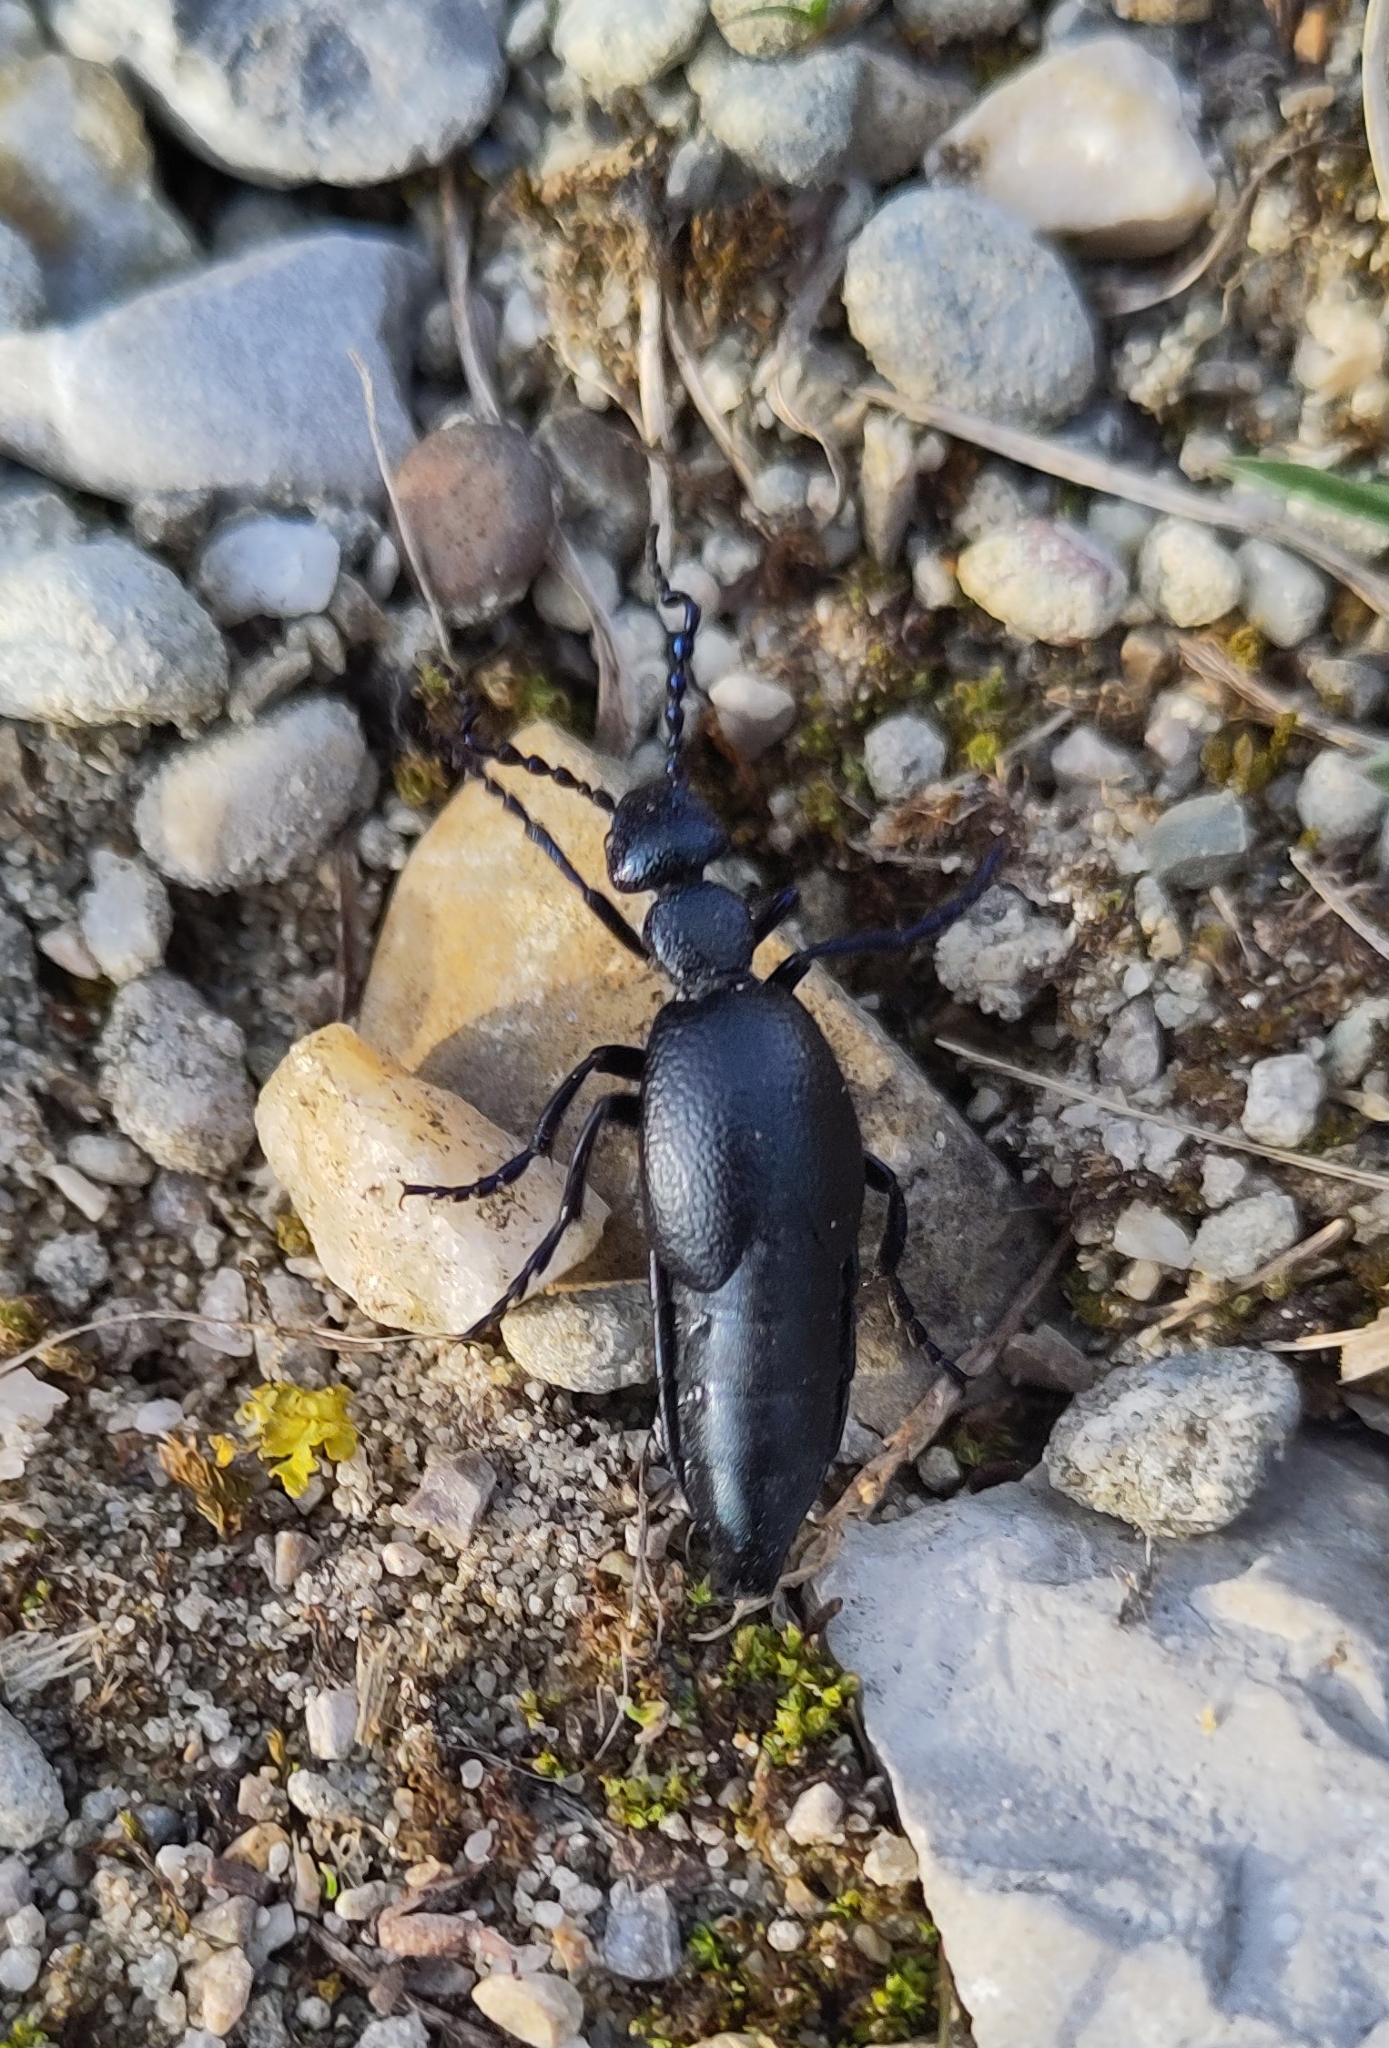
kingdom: Animalia
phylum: Arthropoda
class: Insecta
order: Coleoptera
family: Meloidae
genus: Meloe
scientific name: Meloe proscarabaeus
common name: Black oil-beetle
